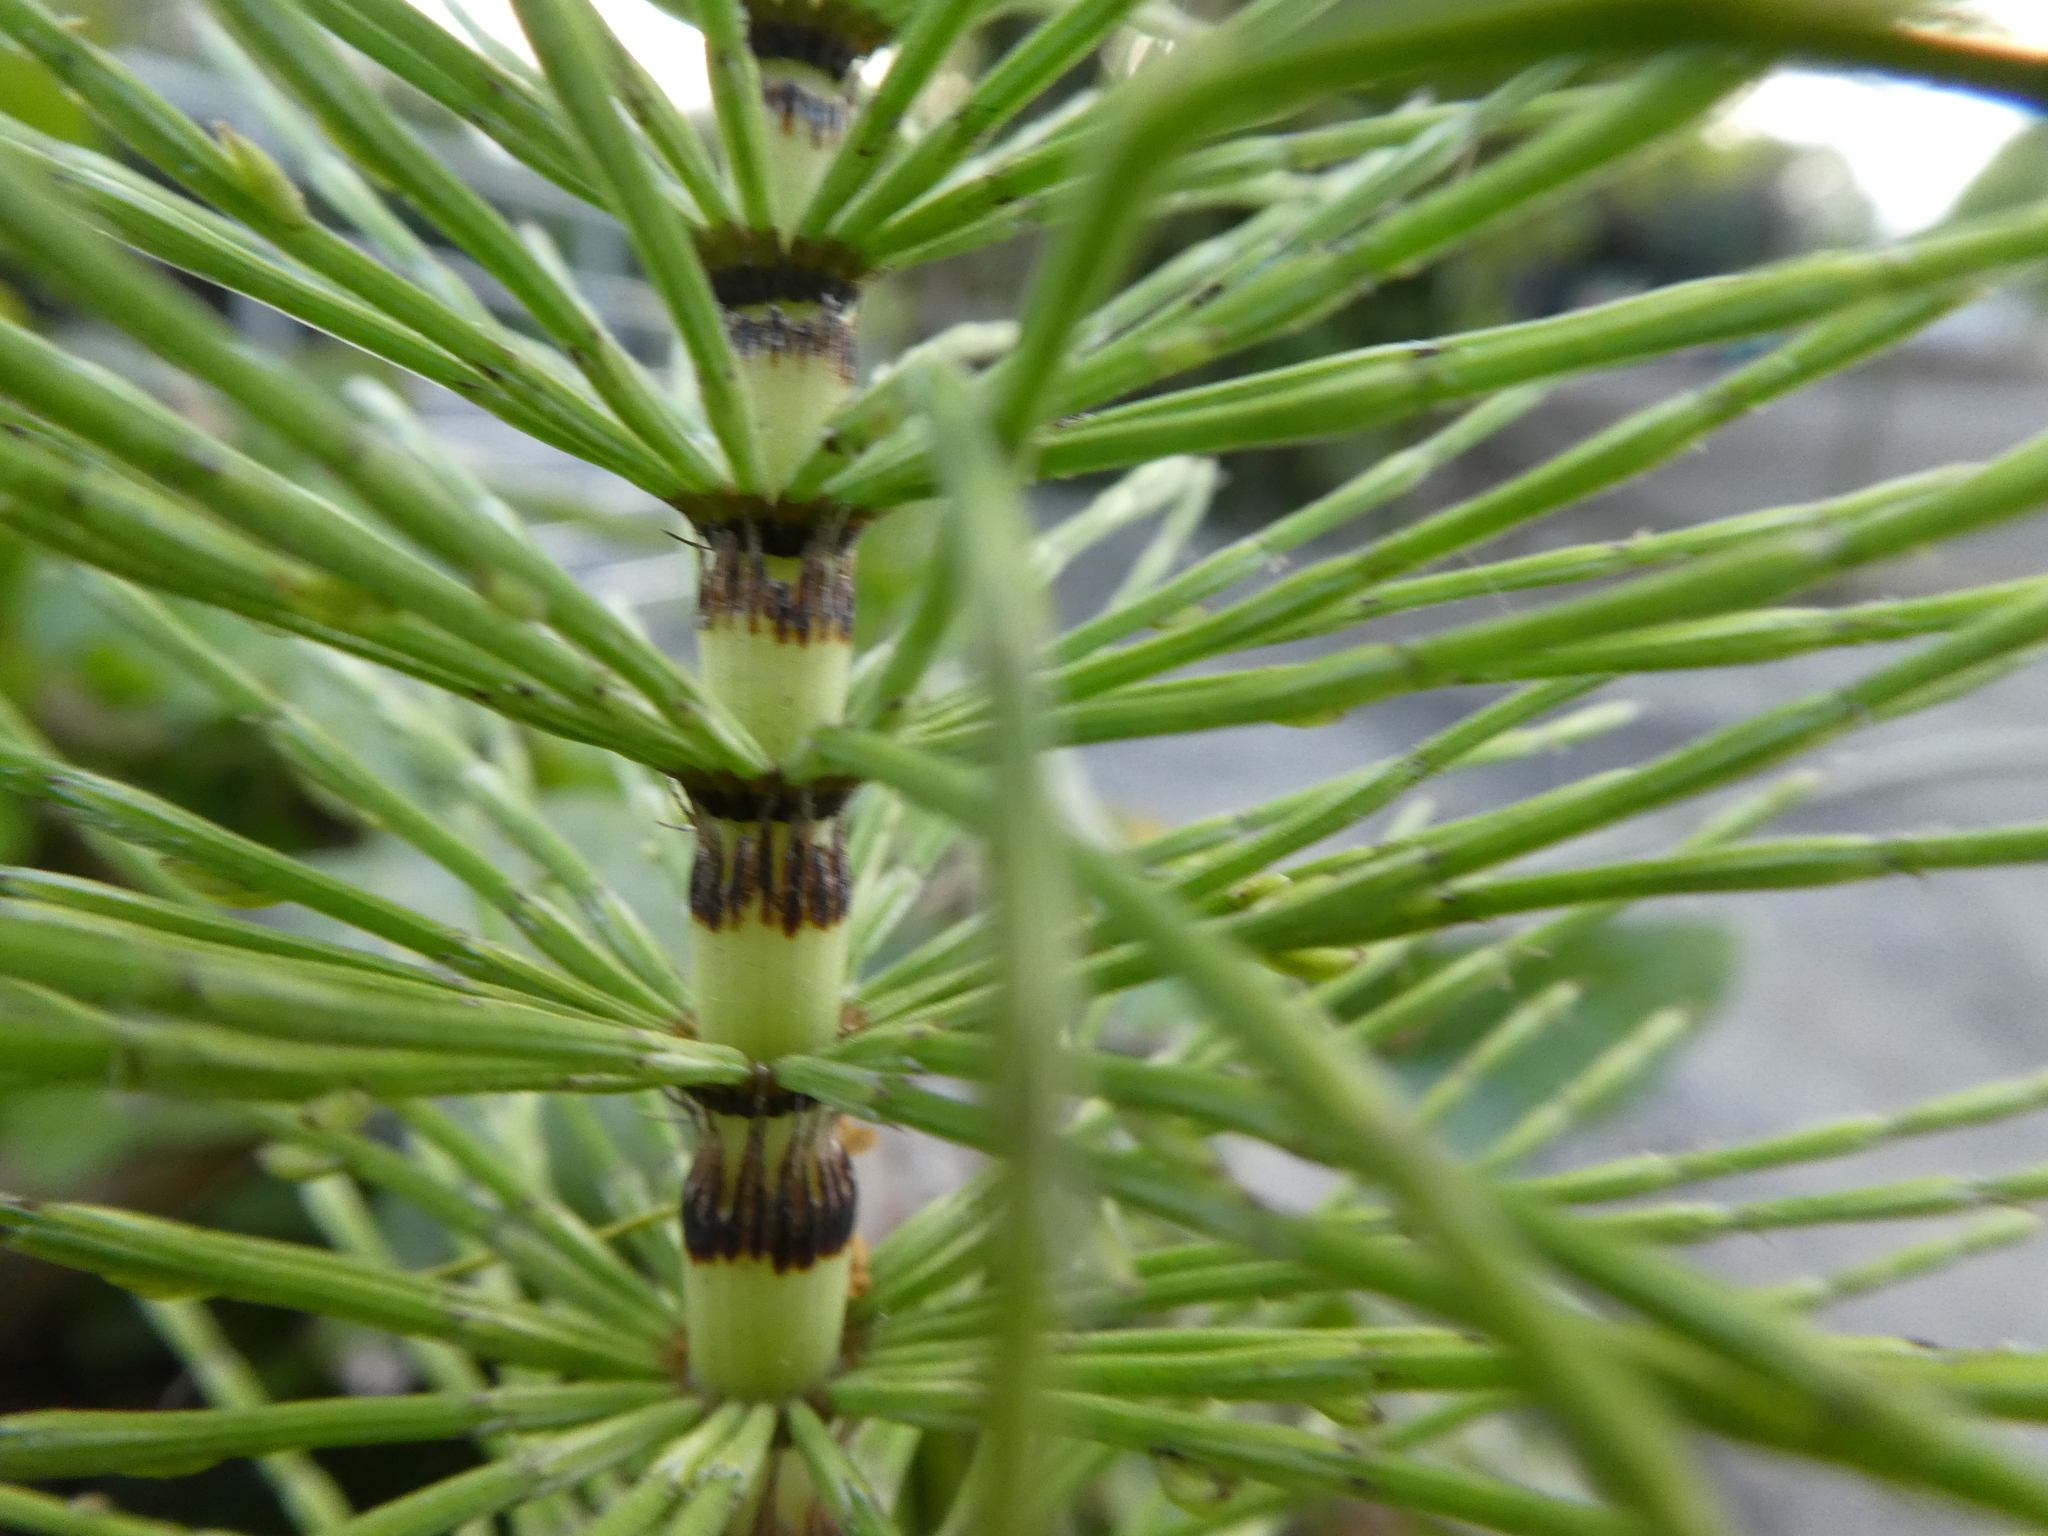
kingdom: Plantae
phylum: Tracheophyta
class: Polypodiopsida
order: Equisetales
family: Equisetaceae
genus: Equisetum
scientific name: Equisetum telmateia
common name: Great horsetail
